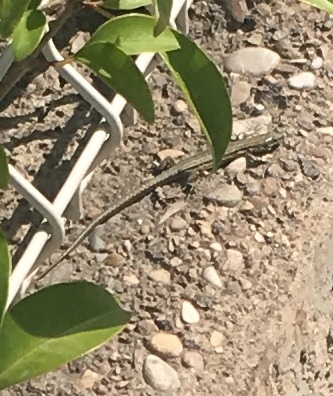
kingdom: Animalia
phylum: Chordata
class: Squamata
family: Lacertidae
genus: Podarcis
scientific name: Podarcis liolepis
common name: Catalonian wall lizard
